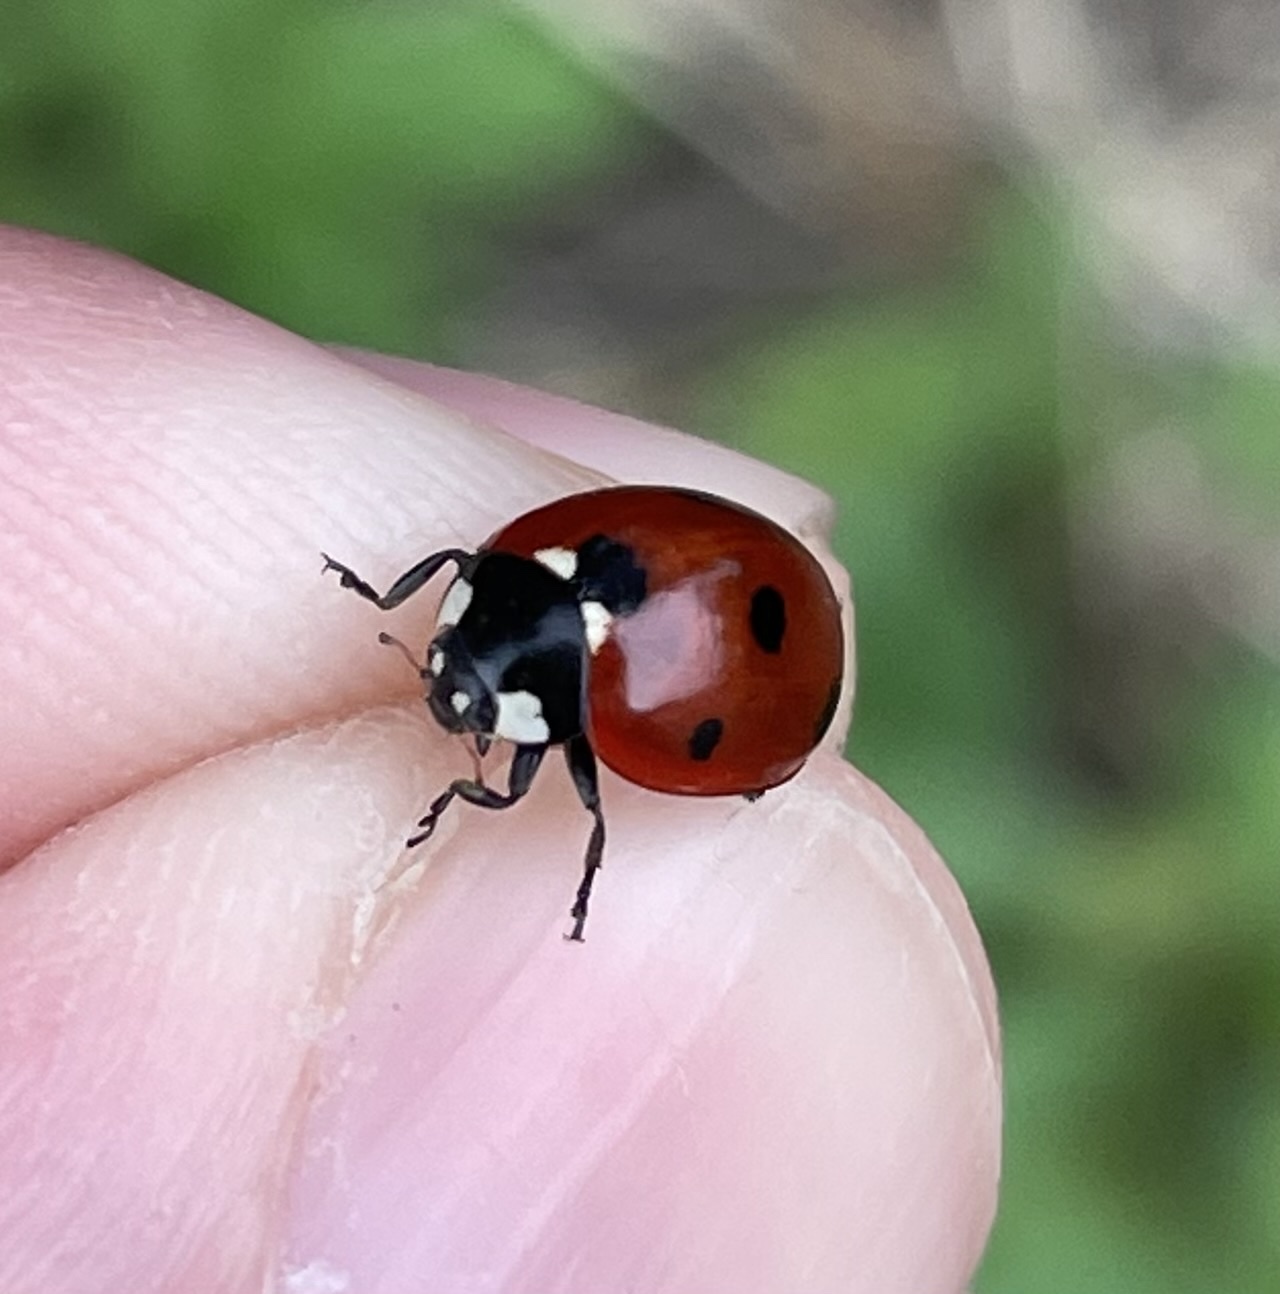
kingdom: Animalia
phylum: Arthropoda
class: Insecta
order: Coleoptera
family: Coccinellidae
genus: Coccinella
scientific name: Coccinella septempunctata
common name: Sevenspotted lady beetle
